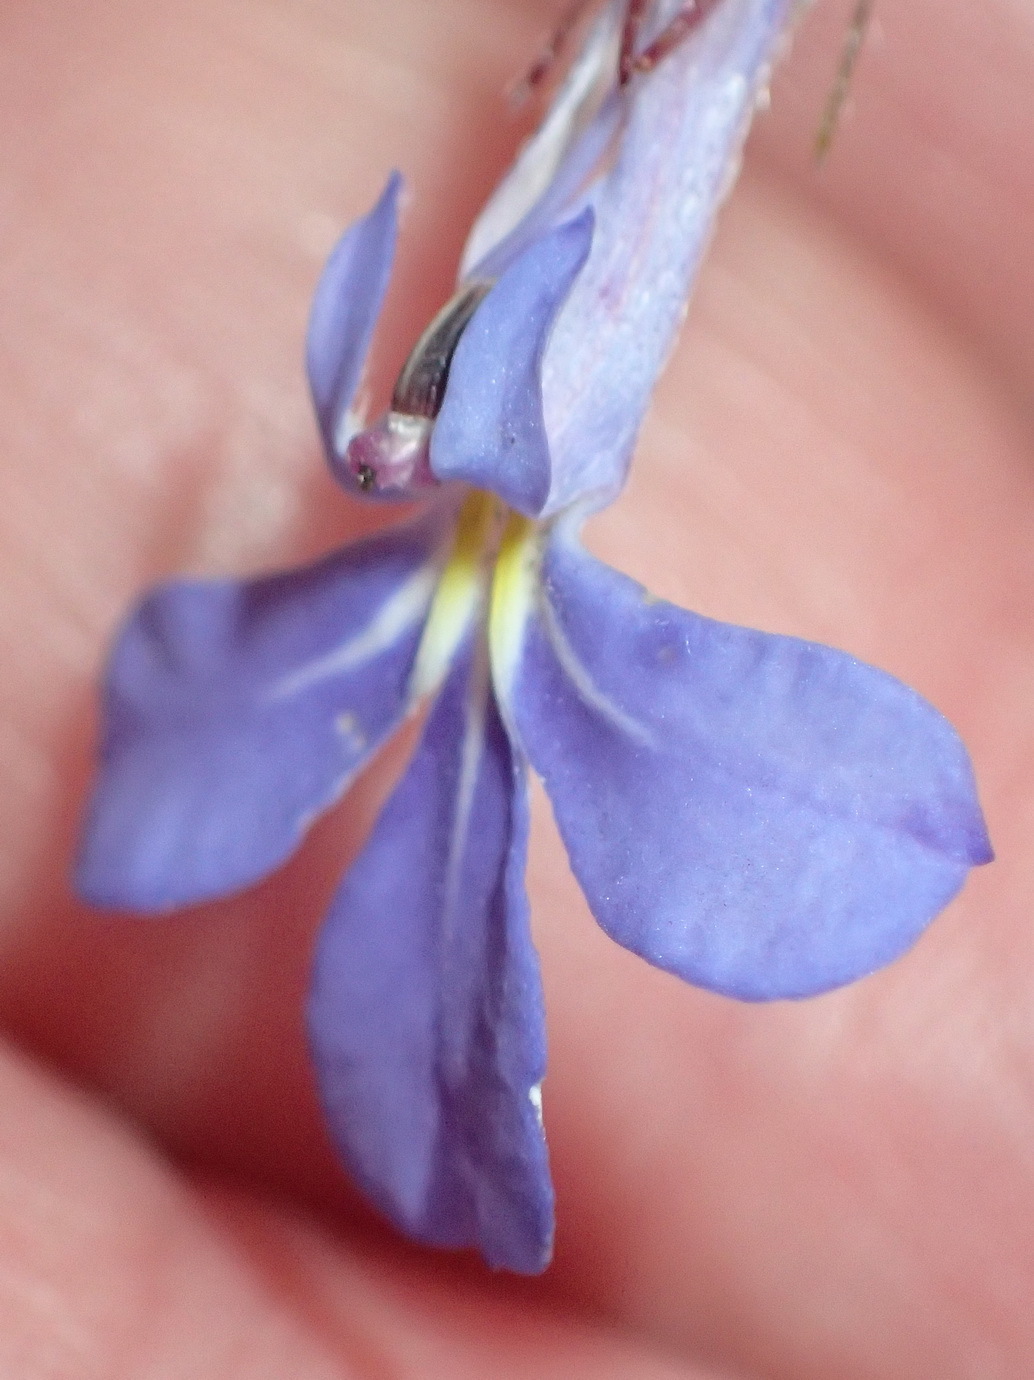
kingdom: Plantae
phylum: Tracheophyta
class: Magnoliopsida
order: Asterales
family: Campanulaceae
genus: Lobelia
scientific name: Lobelia neglecta
